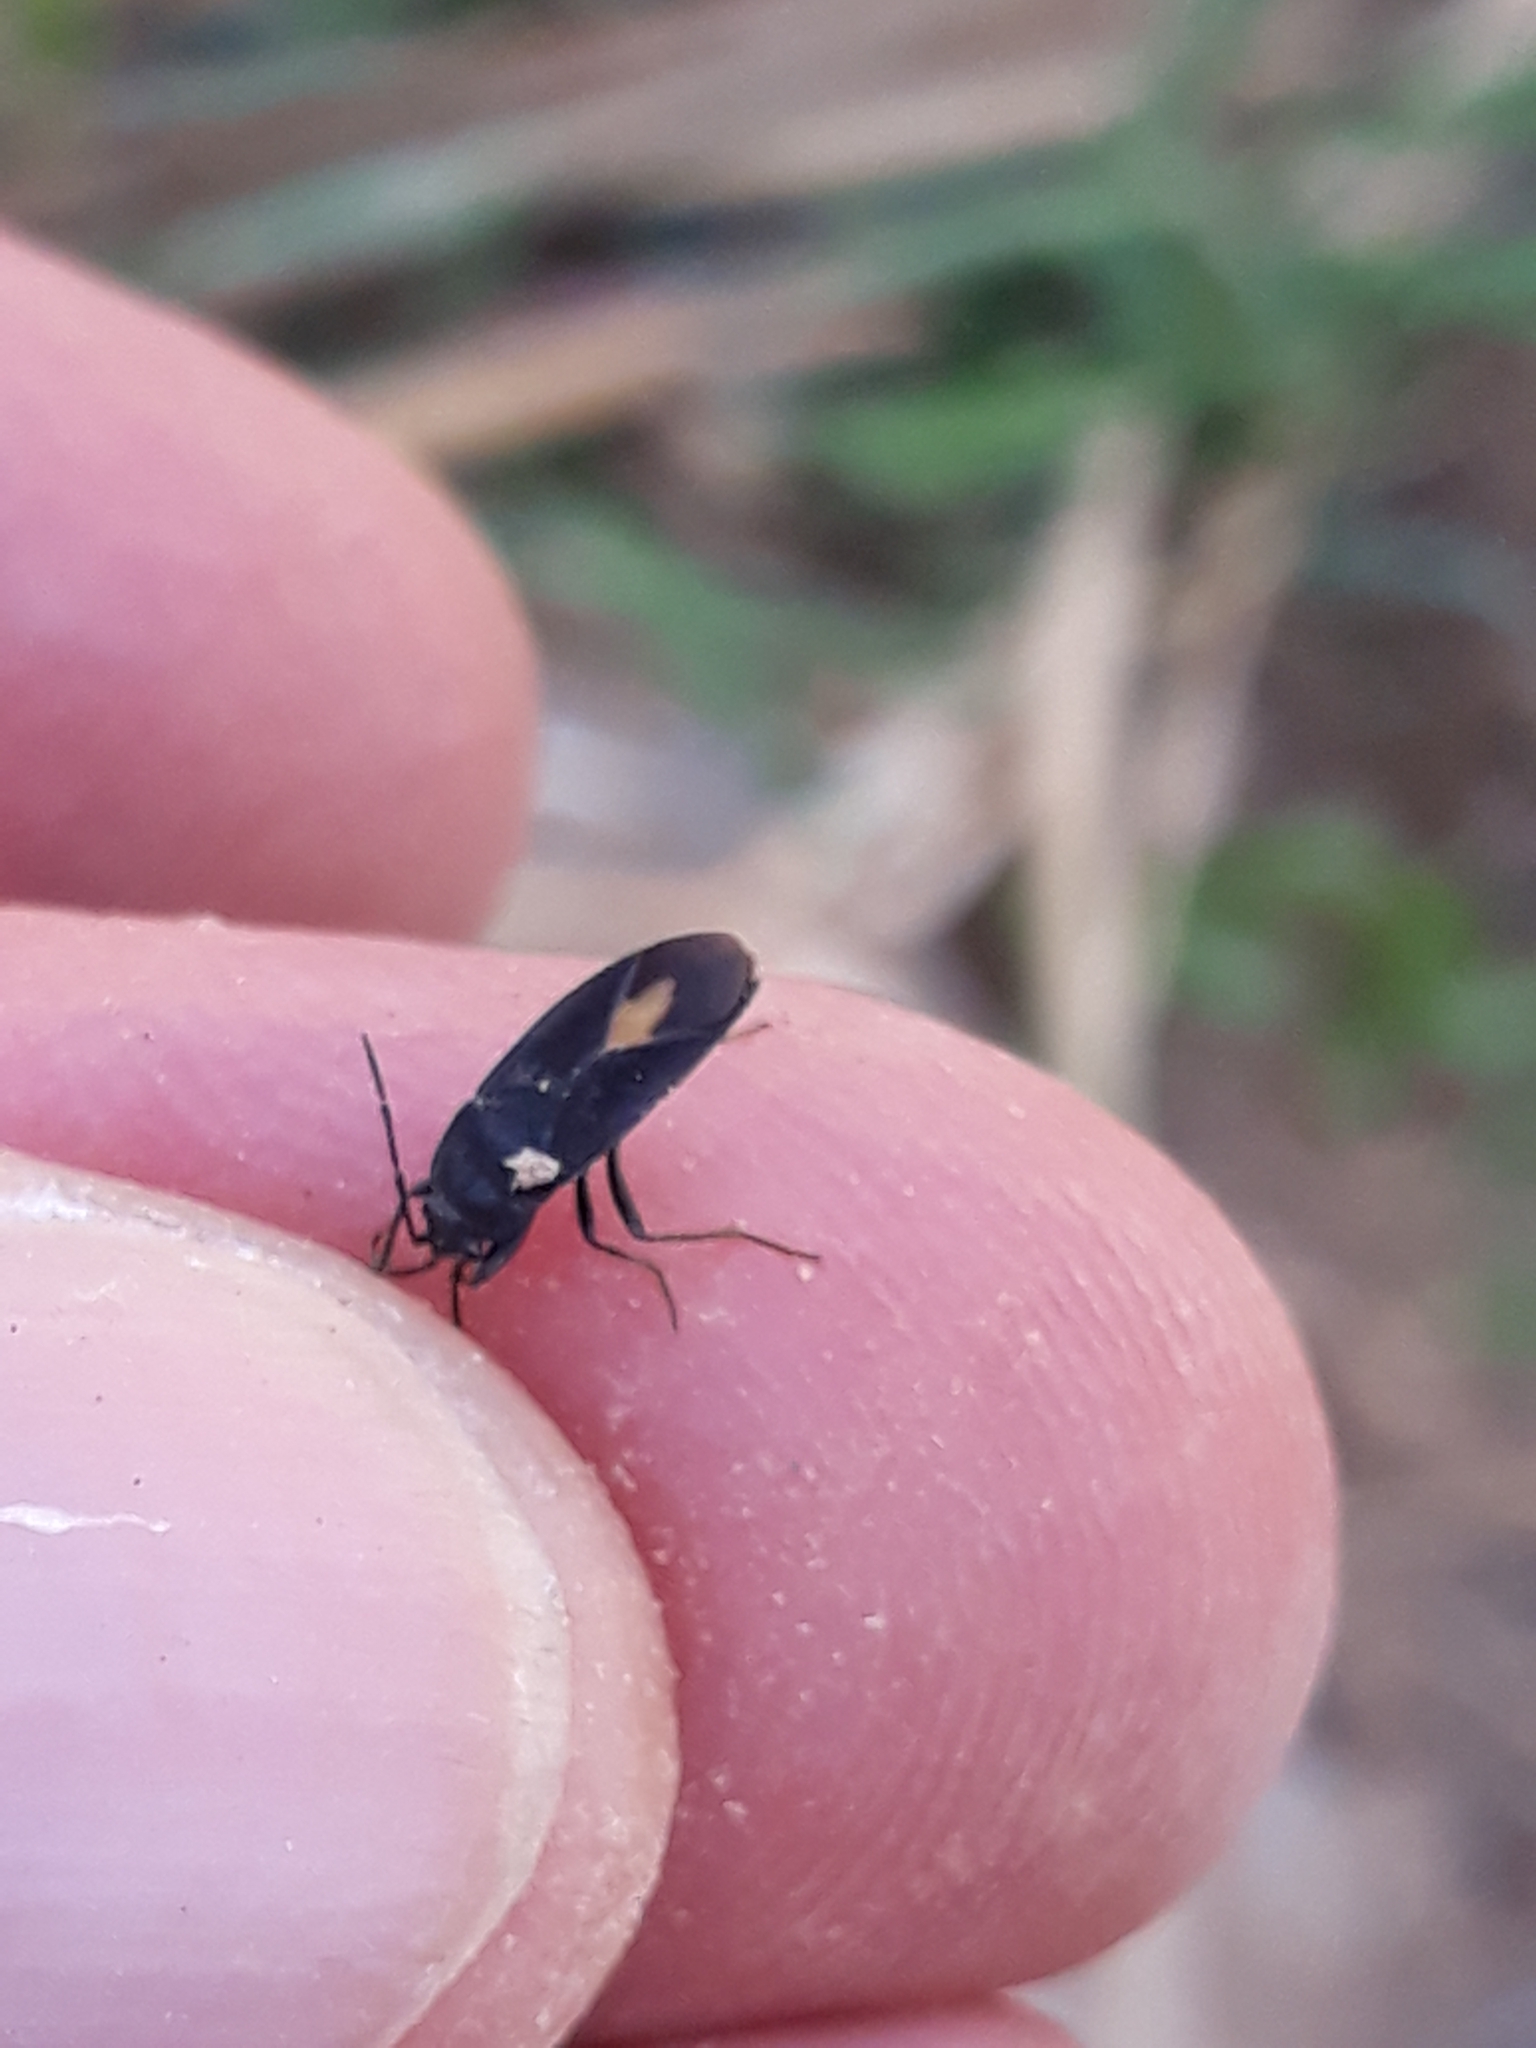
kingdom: Animalia
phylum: Arthropoda
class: Insecta
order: Hemiptera
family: Rhyparochromidae
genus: Aphanus
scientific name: Aphanus rolandri
